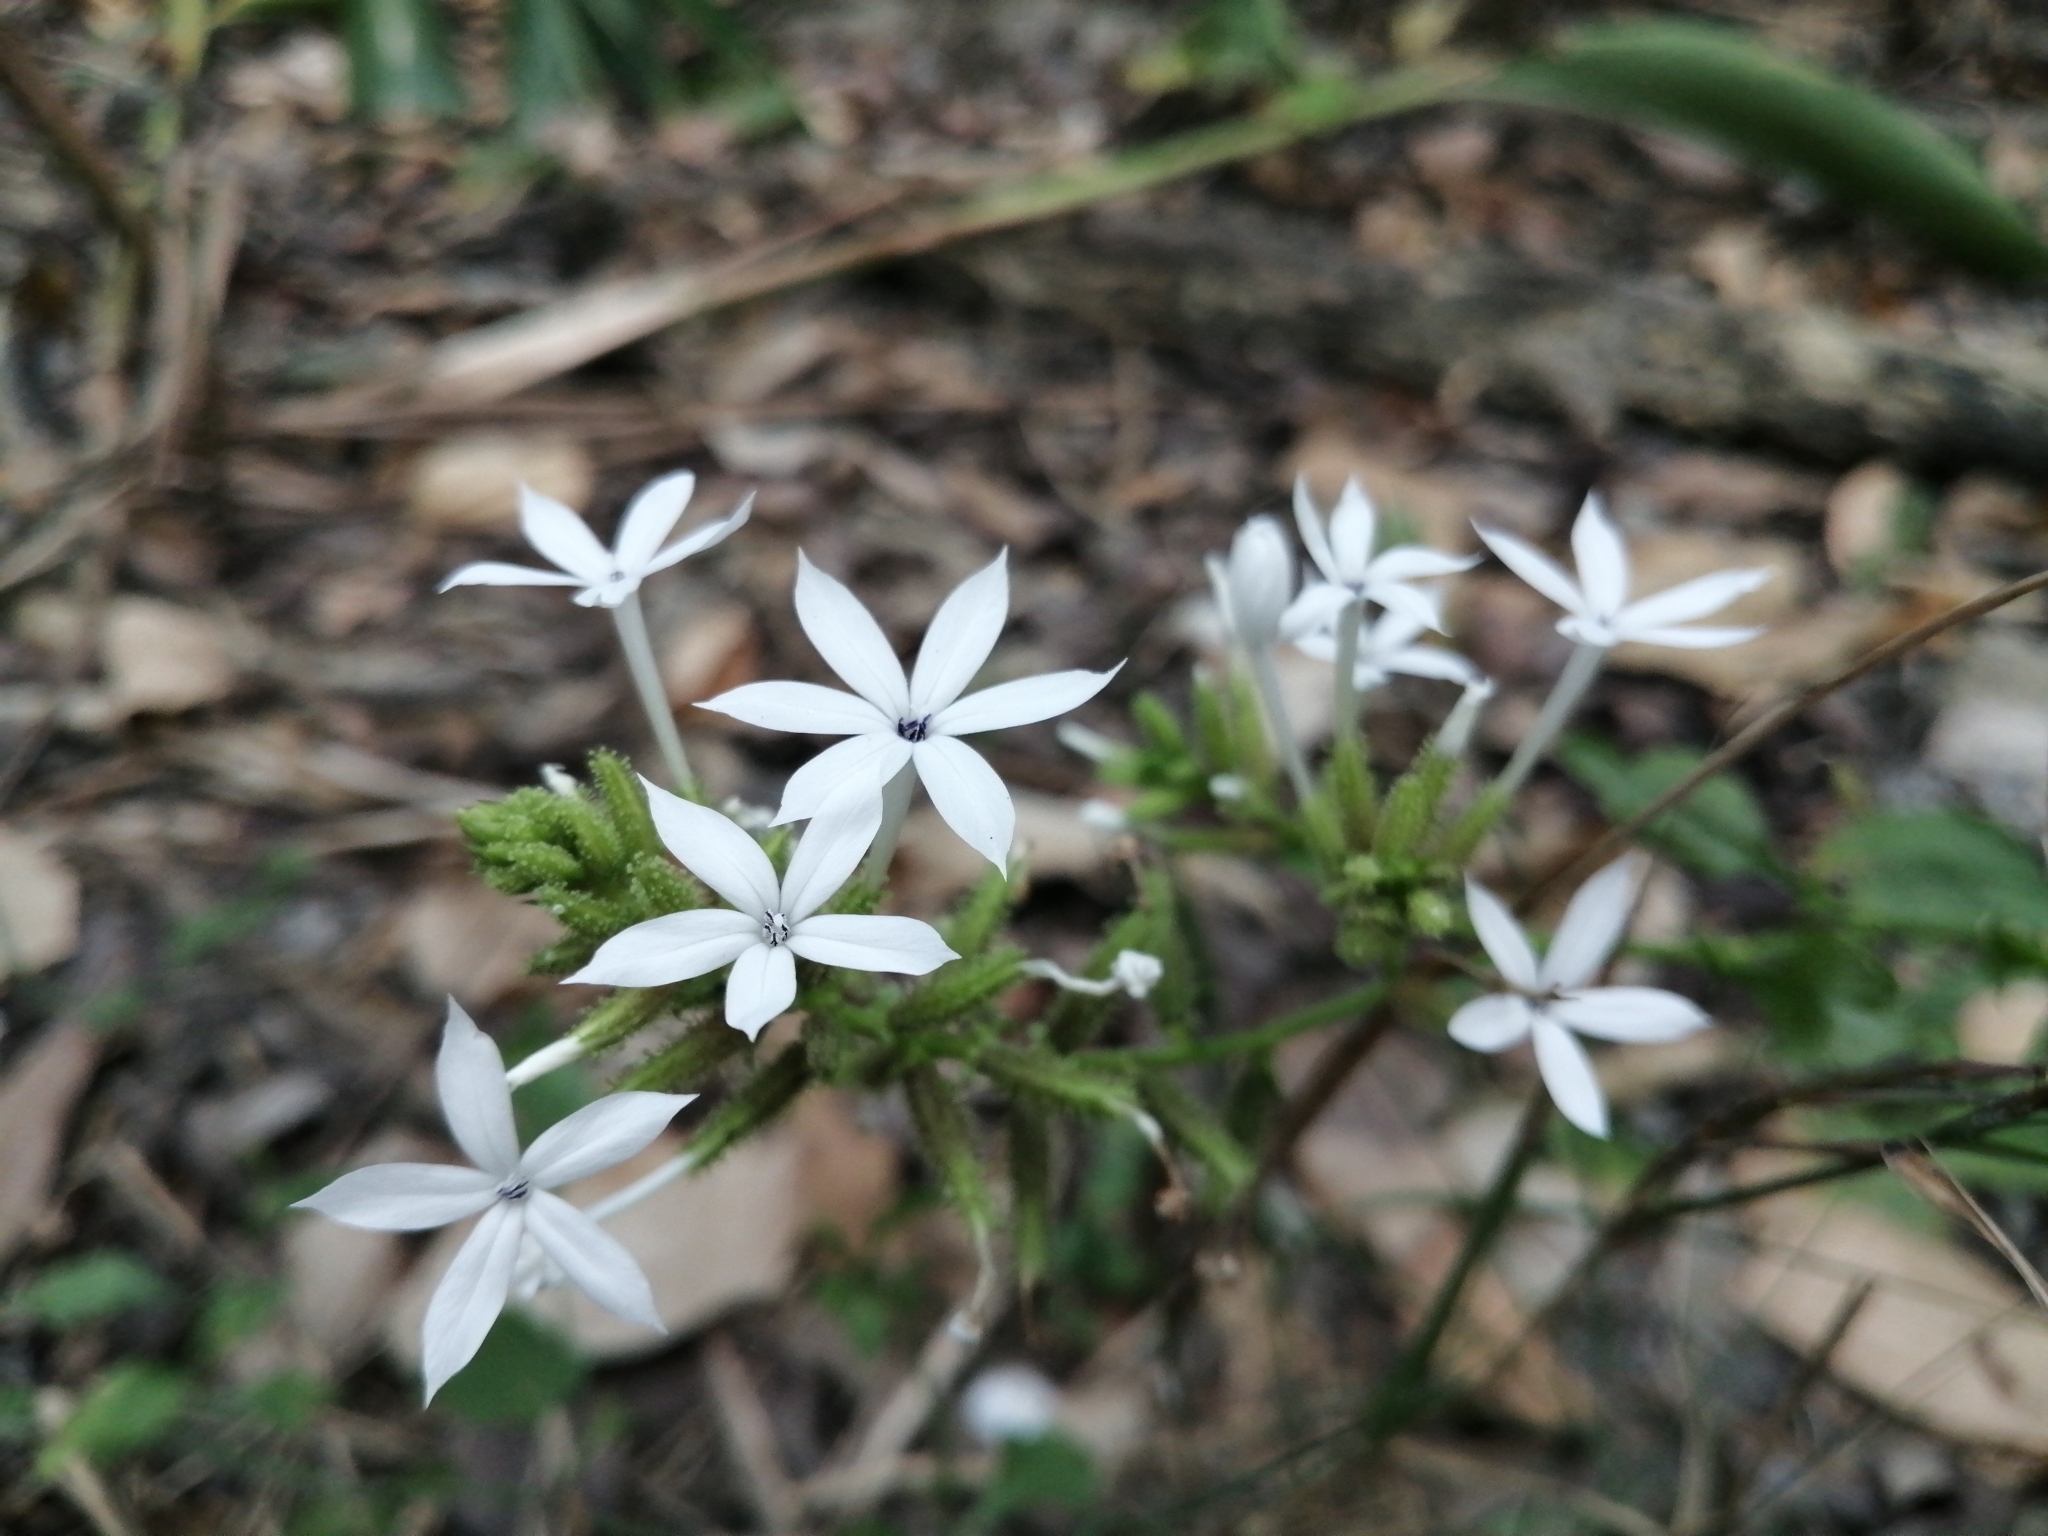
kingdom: Plantae
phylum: Tracheophyta
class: Magnoliopsida
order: Caryophyllales
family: Plumbaginaceae
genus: Plumbago
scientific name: Plumbago zeylanica
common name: Doctorbush
